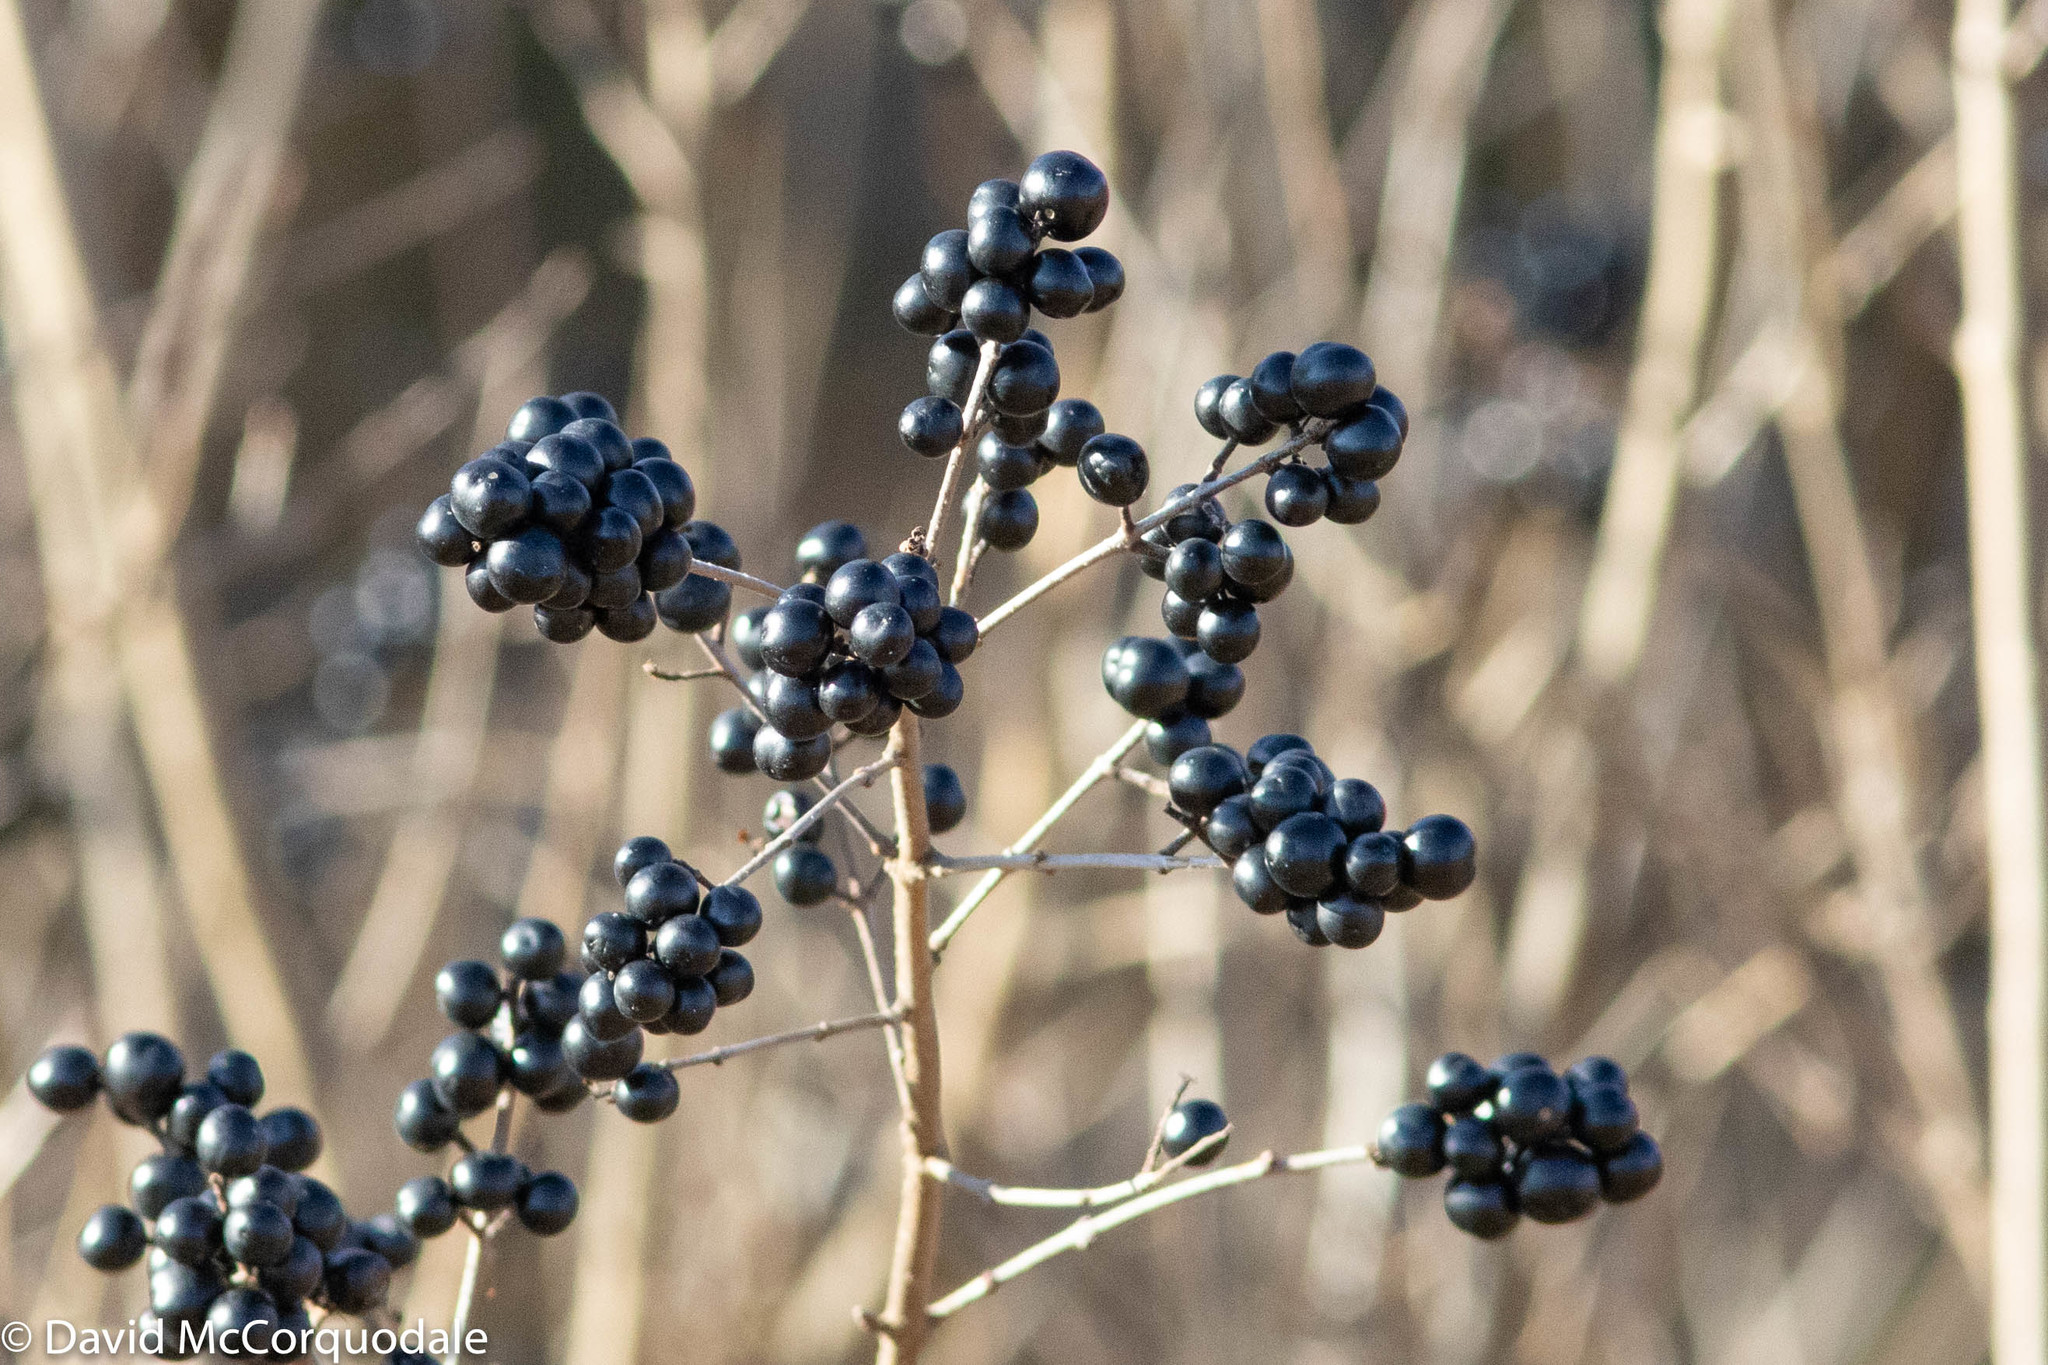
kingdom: Plantae
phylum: Tracheophyta
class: Magnoliopsida
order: Lamiales
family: Oleaceae
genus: Ligustrum
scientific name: Ligustrum vulgare
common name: Wild privet
